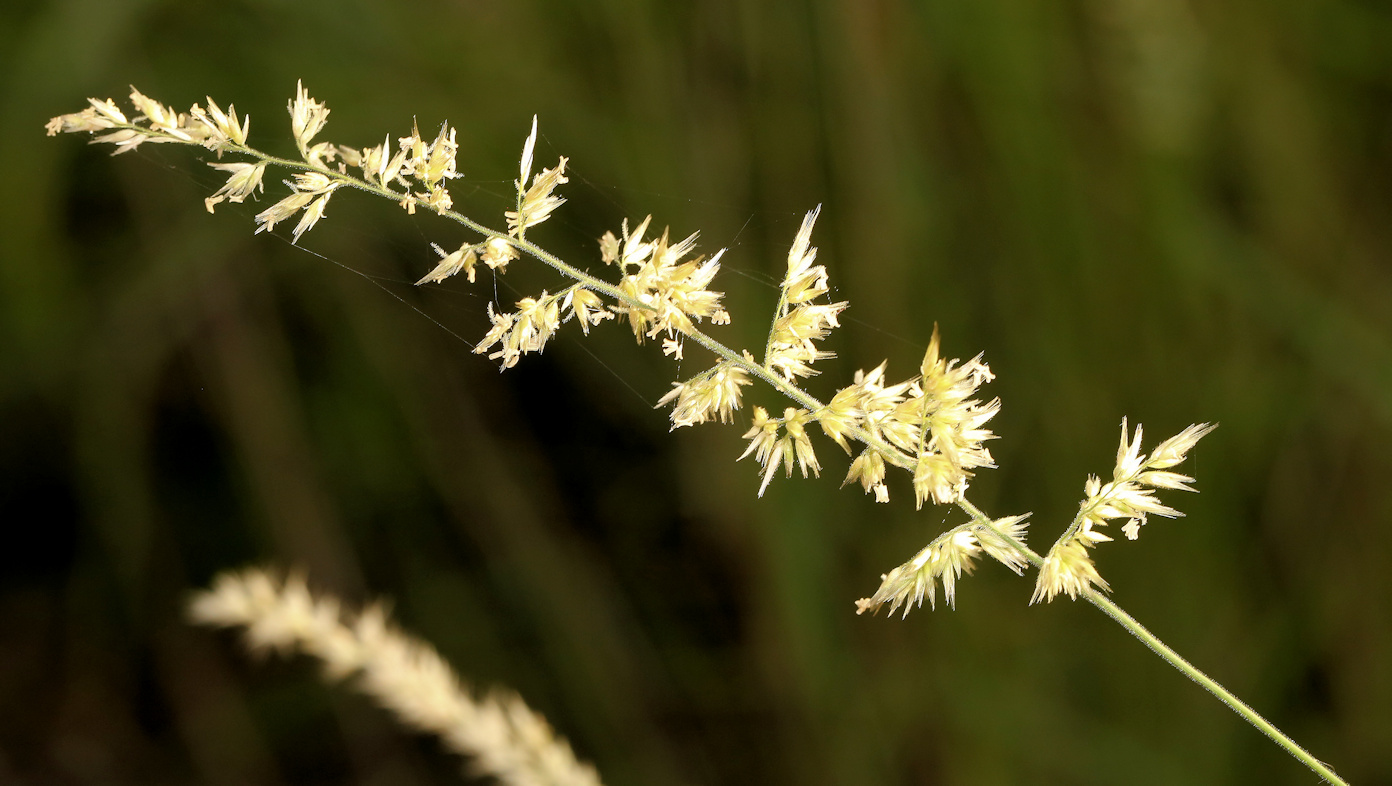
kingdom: Plantae
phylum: Tracheophyta
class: Liliopsida
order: Poales
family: Poaceae
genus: Schmidtia
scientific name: Schmidtia pappophoroides
